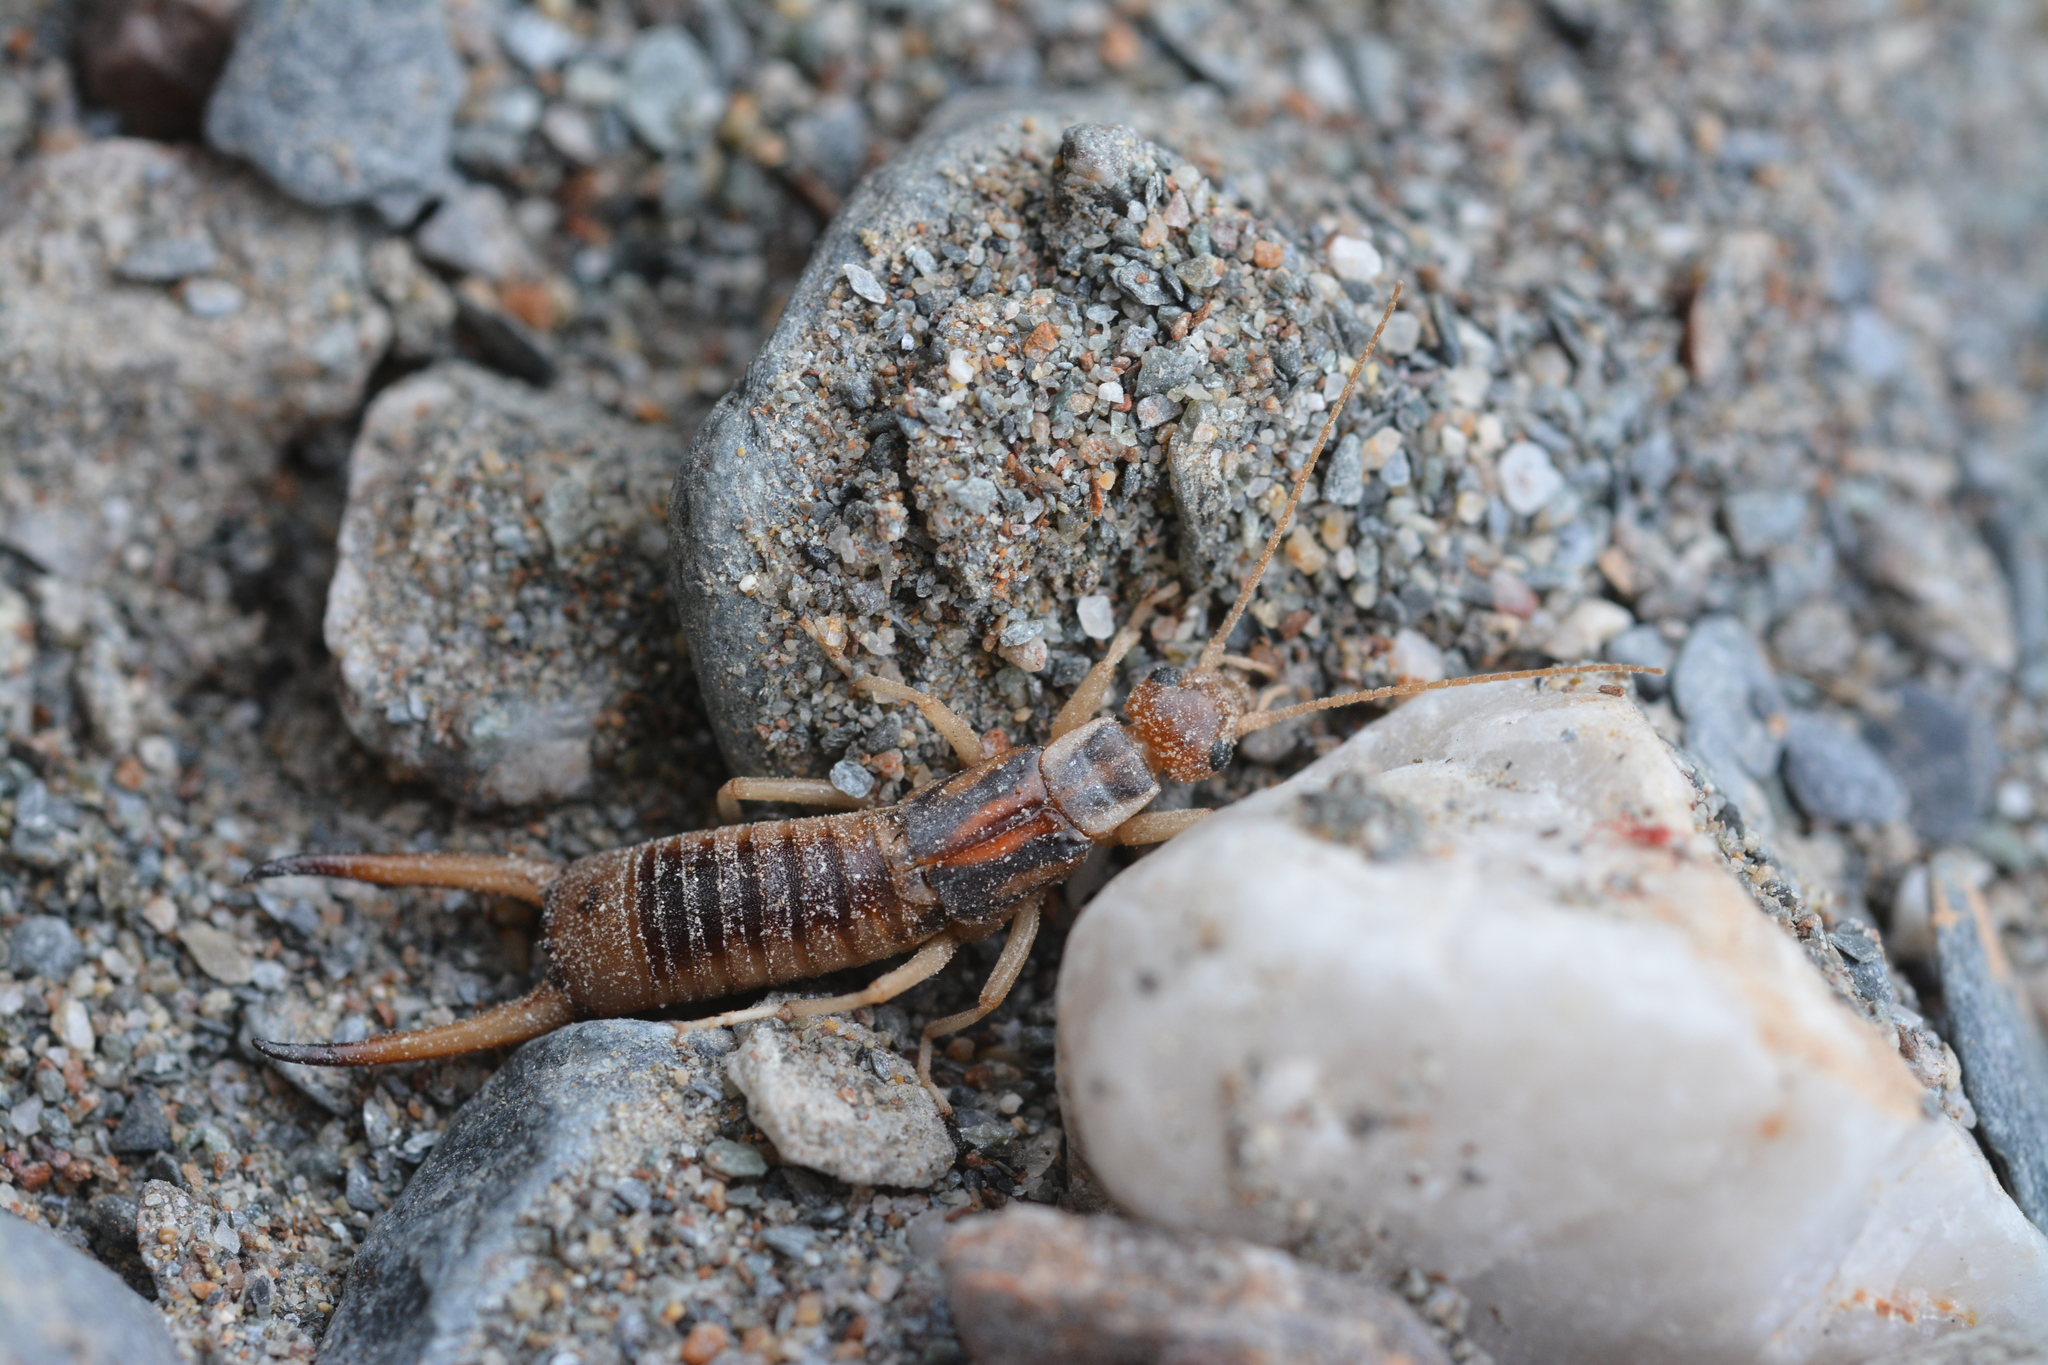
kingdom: Animalia
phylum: Arthropoda
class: Insecta
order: Dermaptera
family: Labiduridae
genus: Labidura
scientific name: Labidura riparia
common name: Striped earwig
